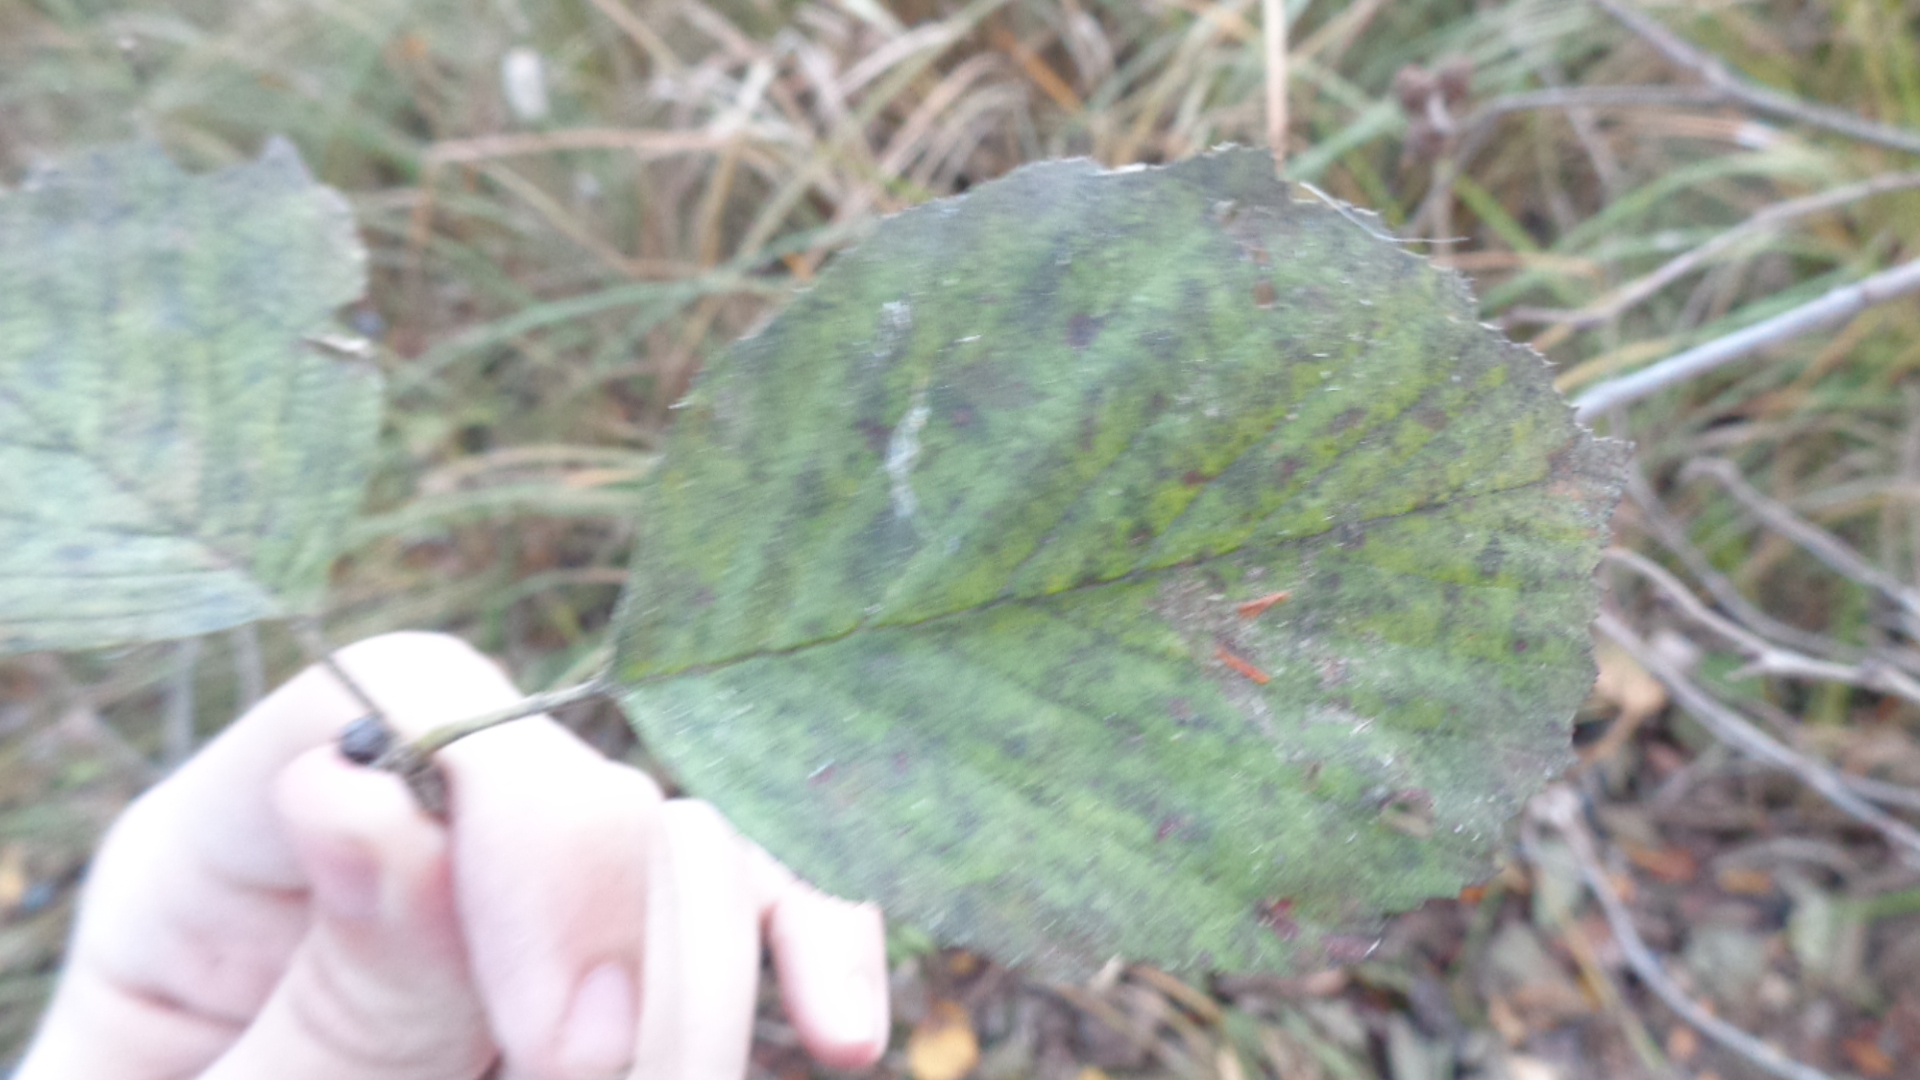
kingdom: Plantae
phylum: Tracheophyta
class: Magnoliopsida
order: Fagales
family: Betulaceae
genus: Alnus
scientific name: Alnus incana
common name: Grey alder
